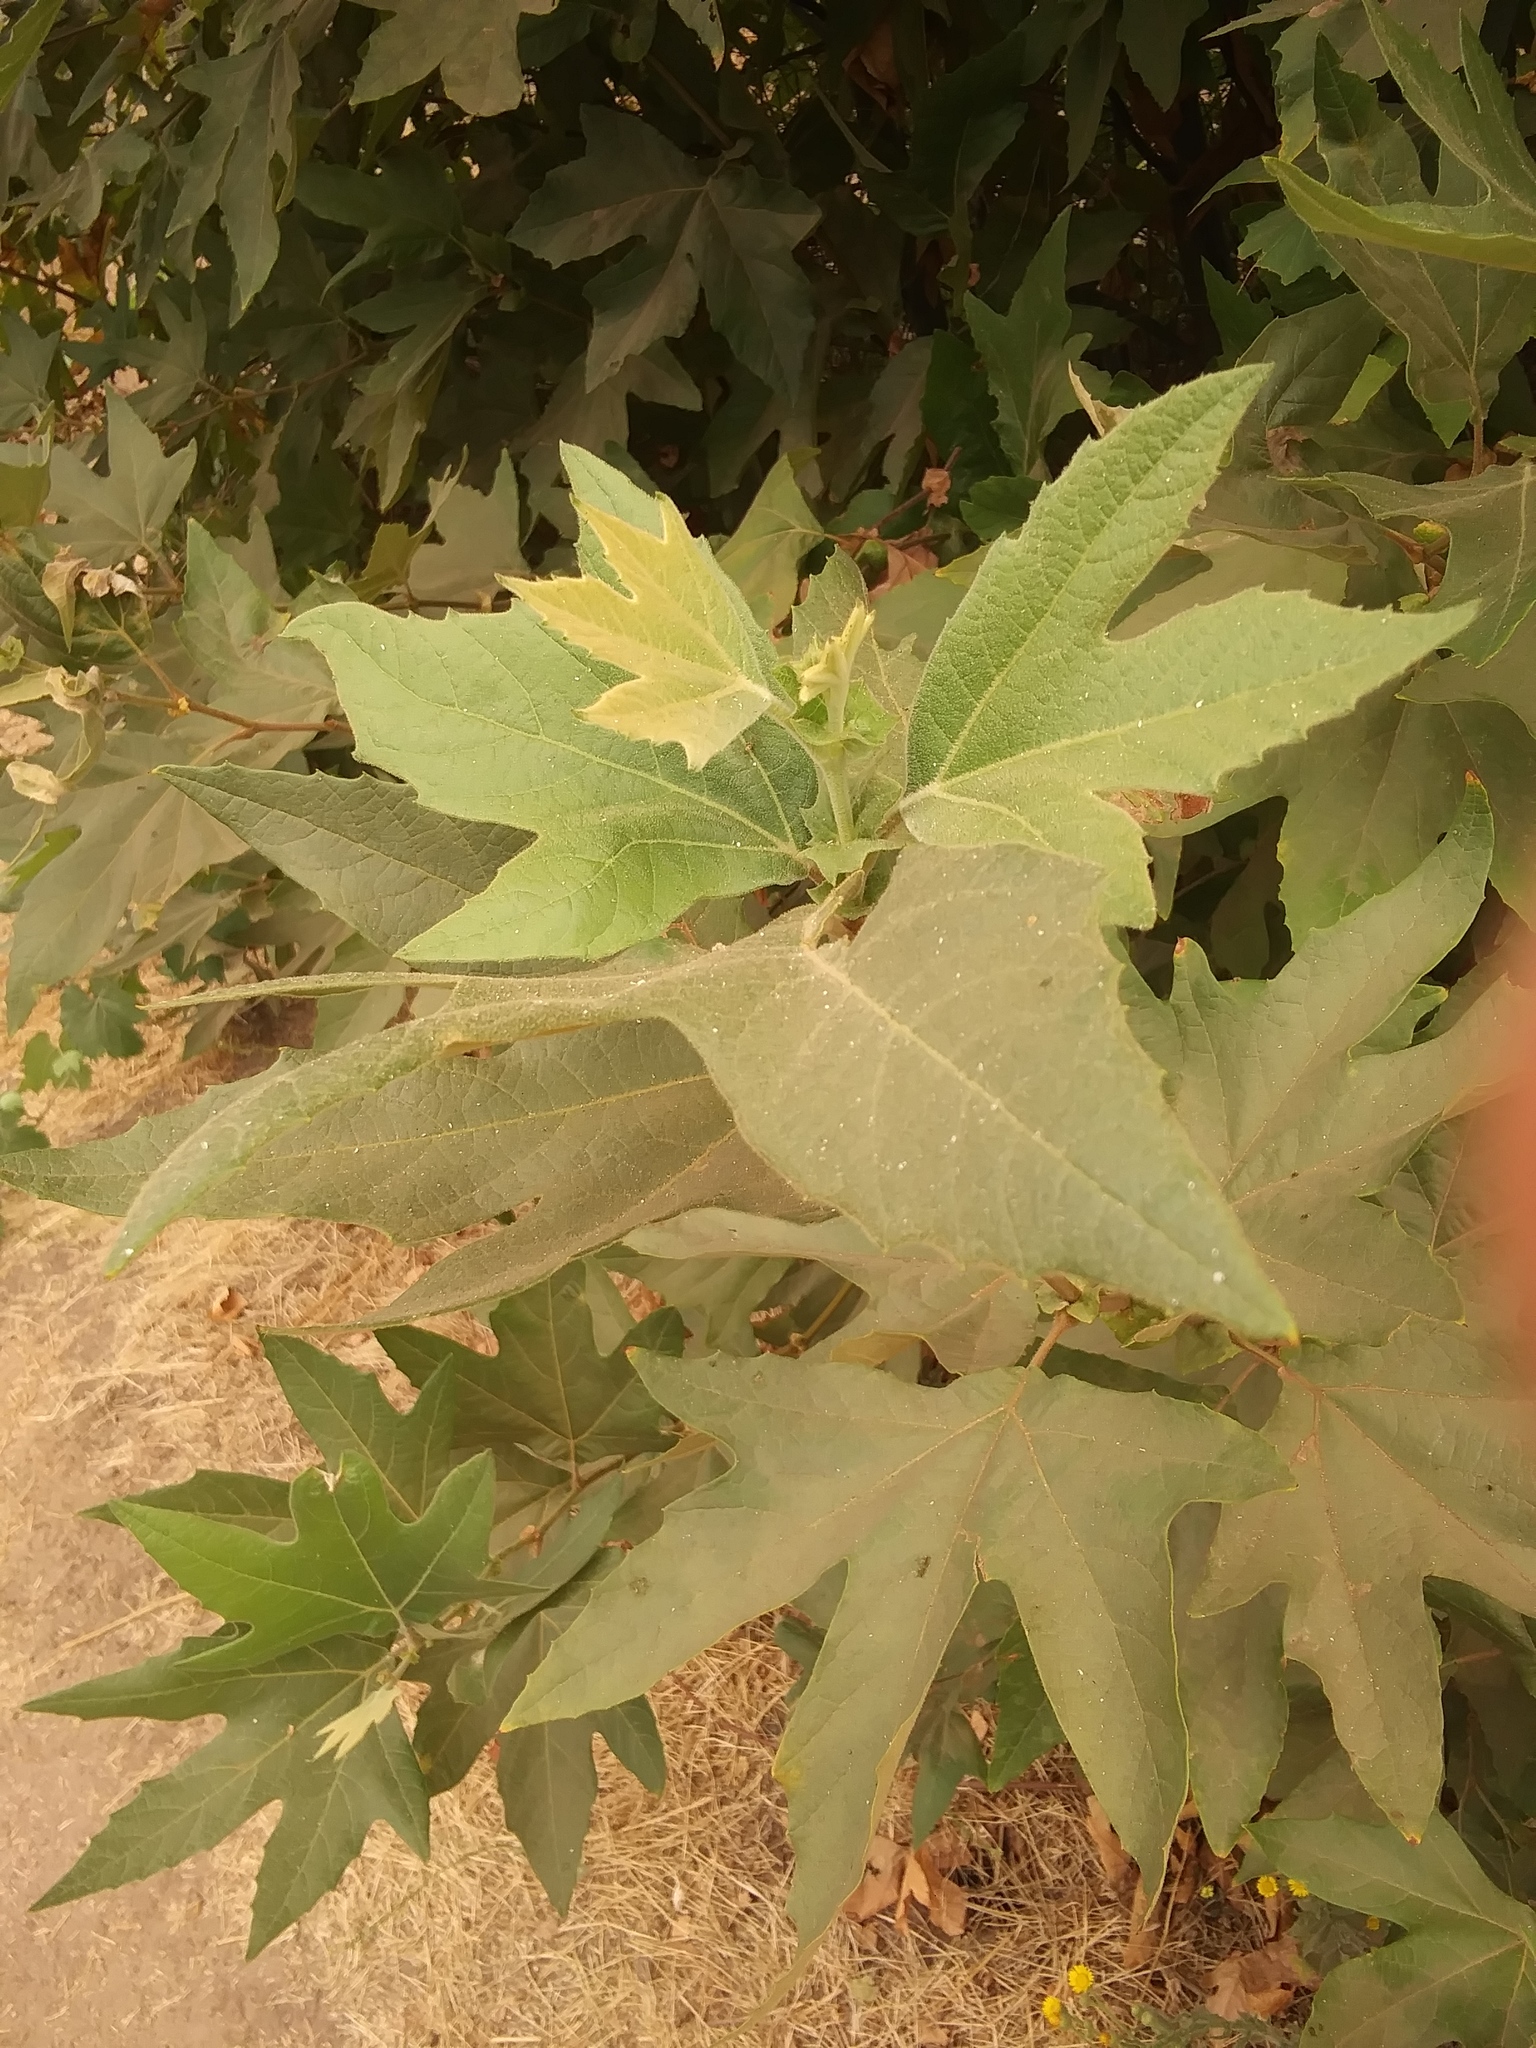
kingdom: Plantae
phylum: Tracheophyta
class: Magnoliopsida
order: Proteales
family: Platanaceae
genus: Platanus
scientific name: Platanus racemosa
